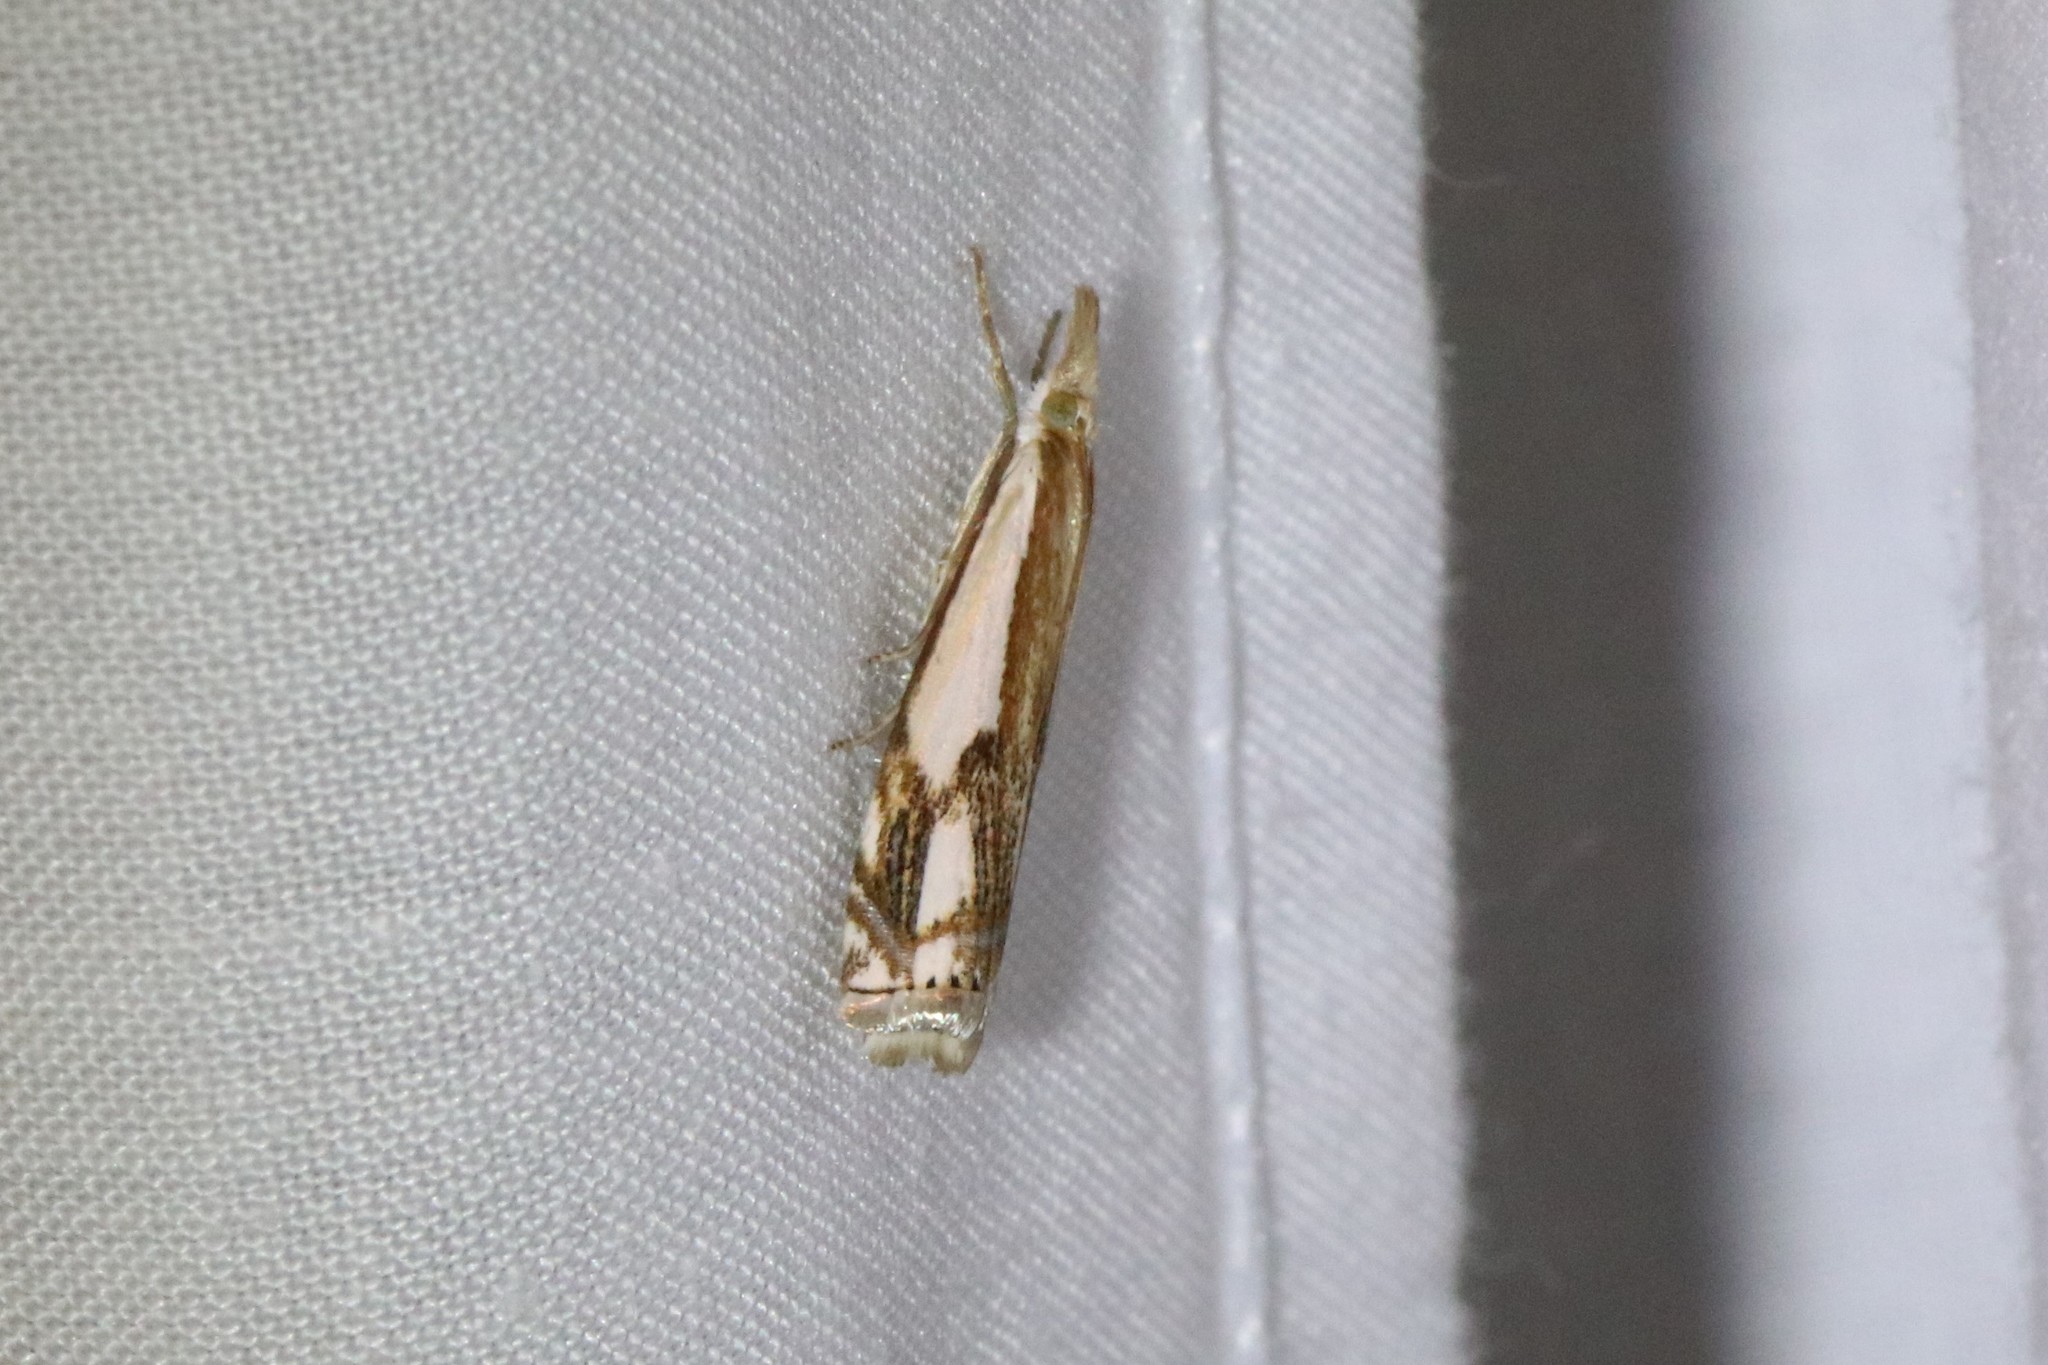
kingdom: Animalia
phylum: Arthropoda
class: Insecta
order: Lepidoptera
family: Crambidae
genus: Crambus
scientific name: Crambus agitatellus
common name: Double-banded grass-veneer
